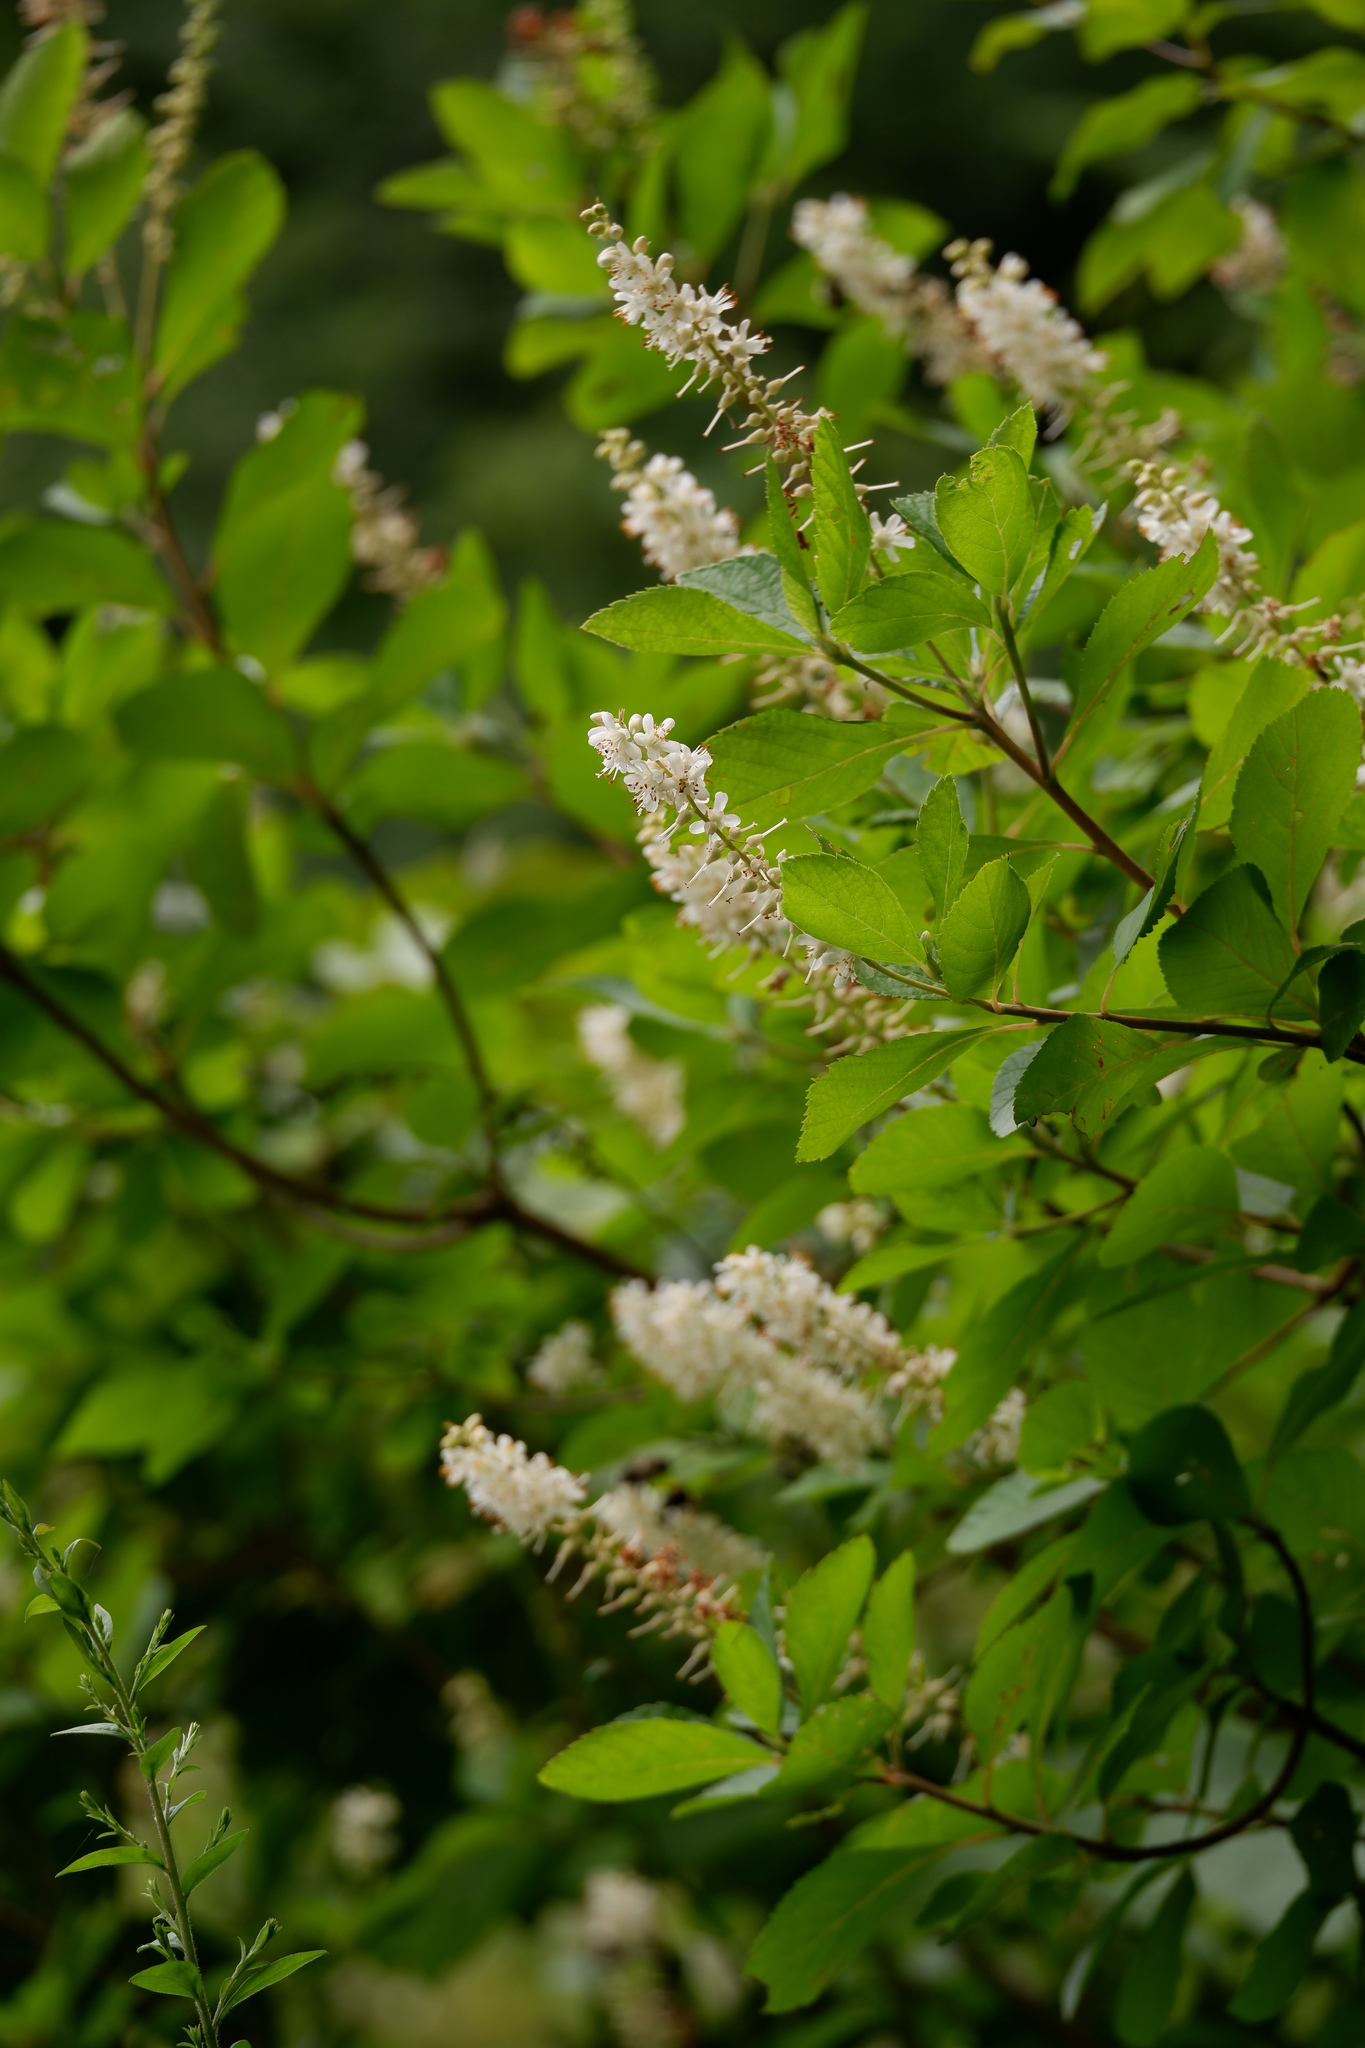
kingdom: Plantae
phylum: Tracheophyta
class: Magnoliopsida
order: Ericales
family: Clethraceae
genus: Clethra
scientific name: Clethra alnifolia
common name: Sweet pepperbush
